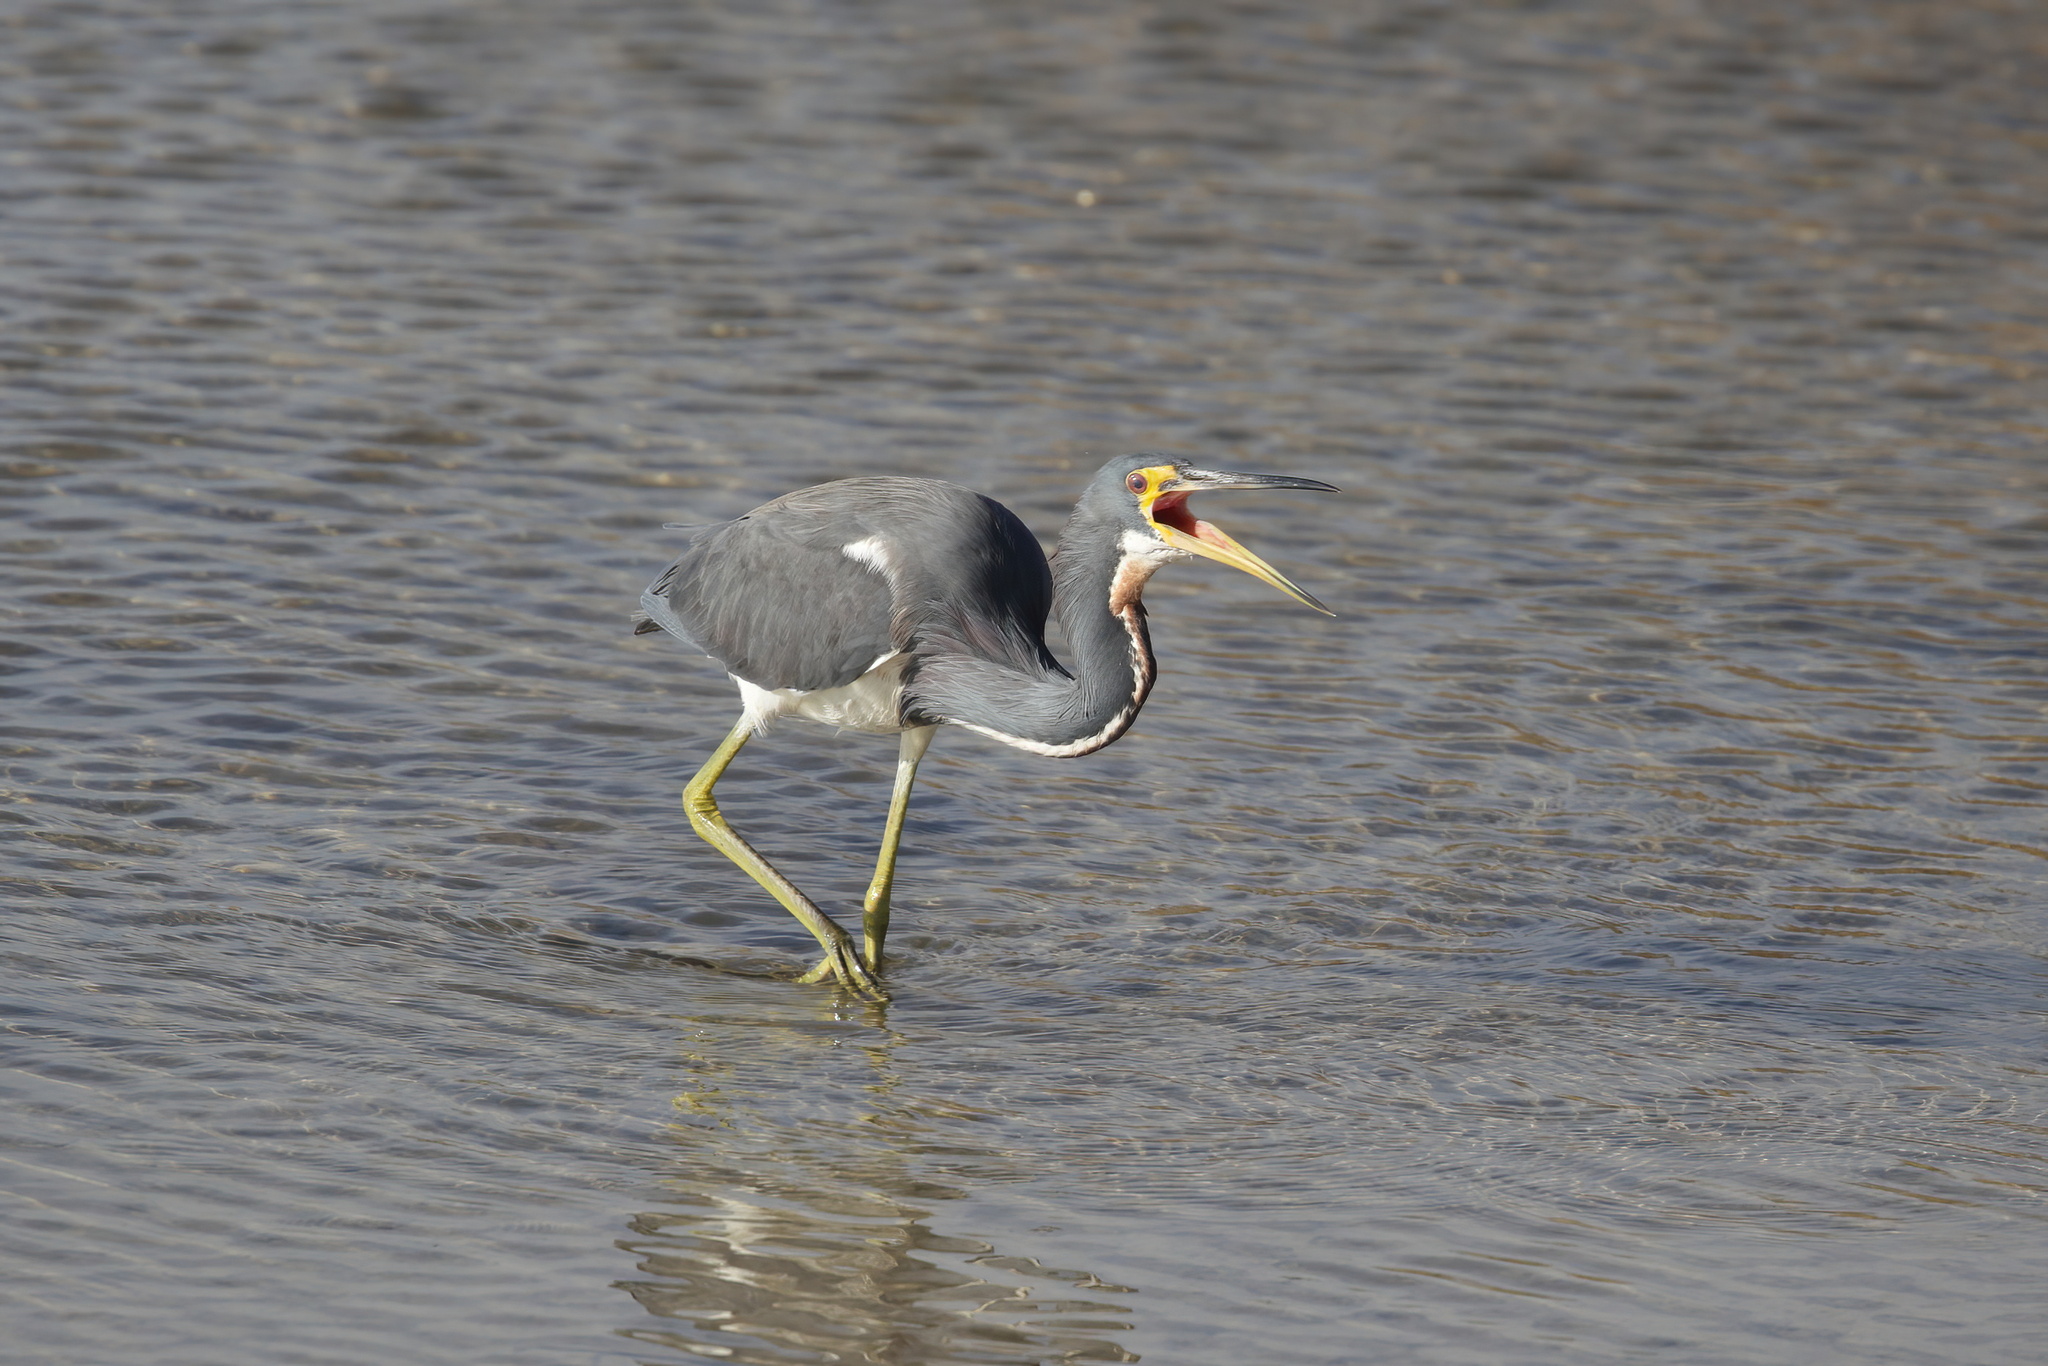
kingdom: Animalia
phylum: Chordata
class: Aves
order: Pelecaniformes
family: Ardeidae
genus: Egretta
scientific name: Egretta tricolor
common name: Tricolored heron
